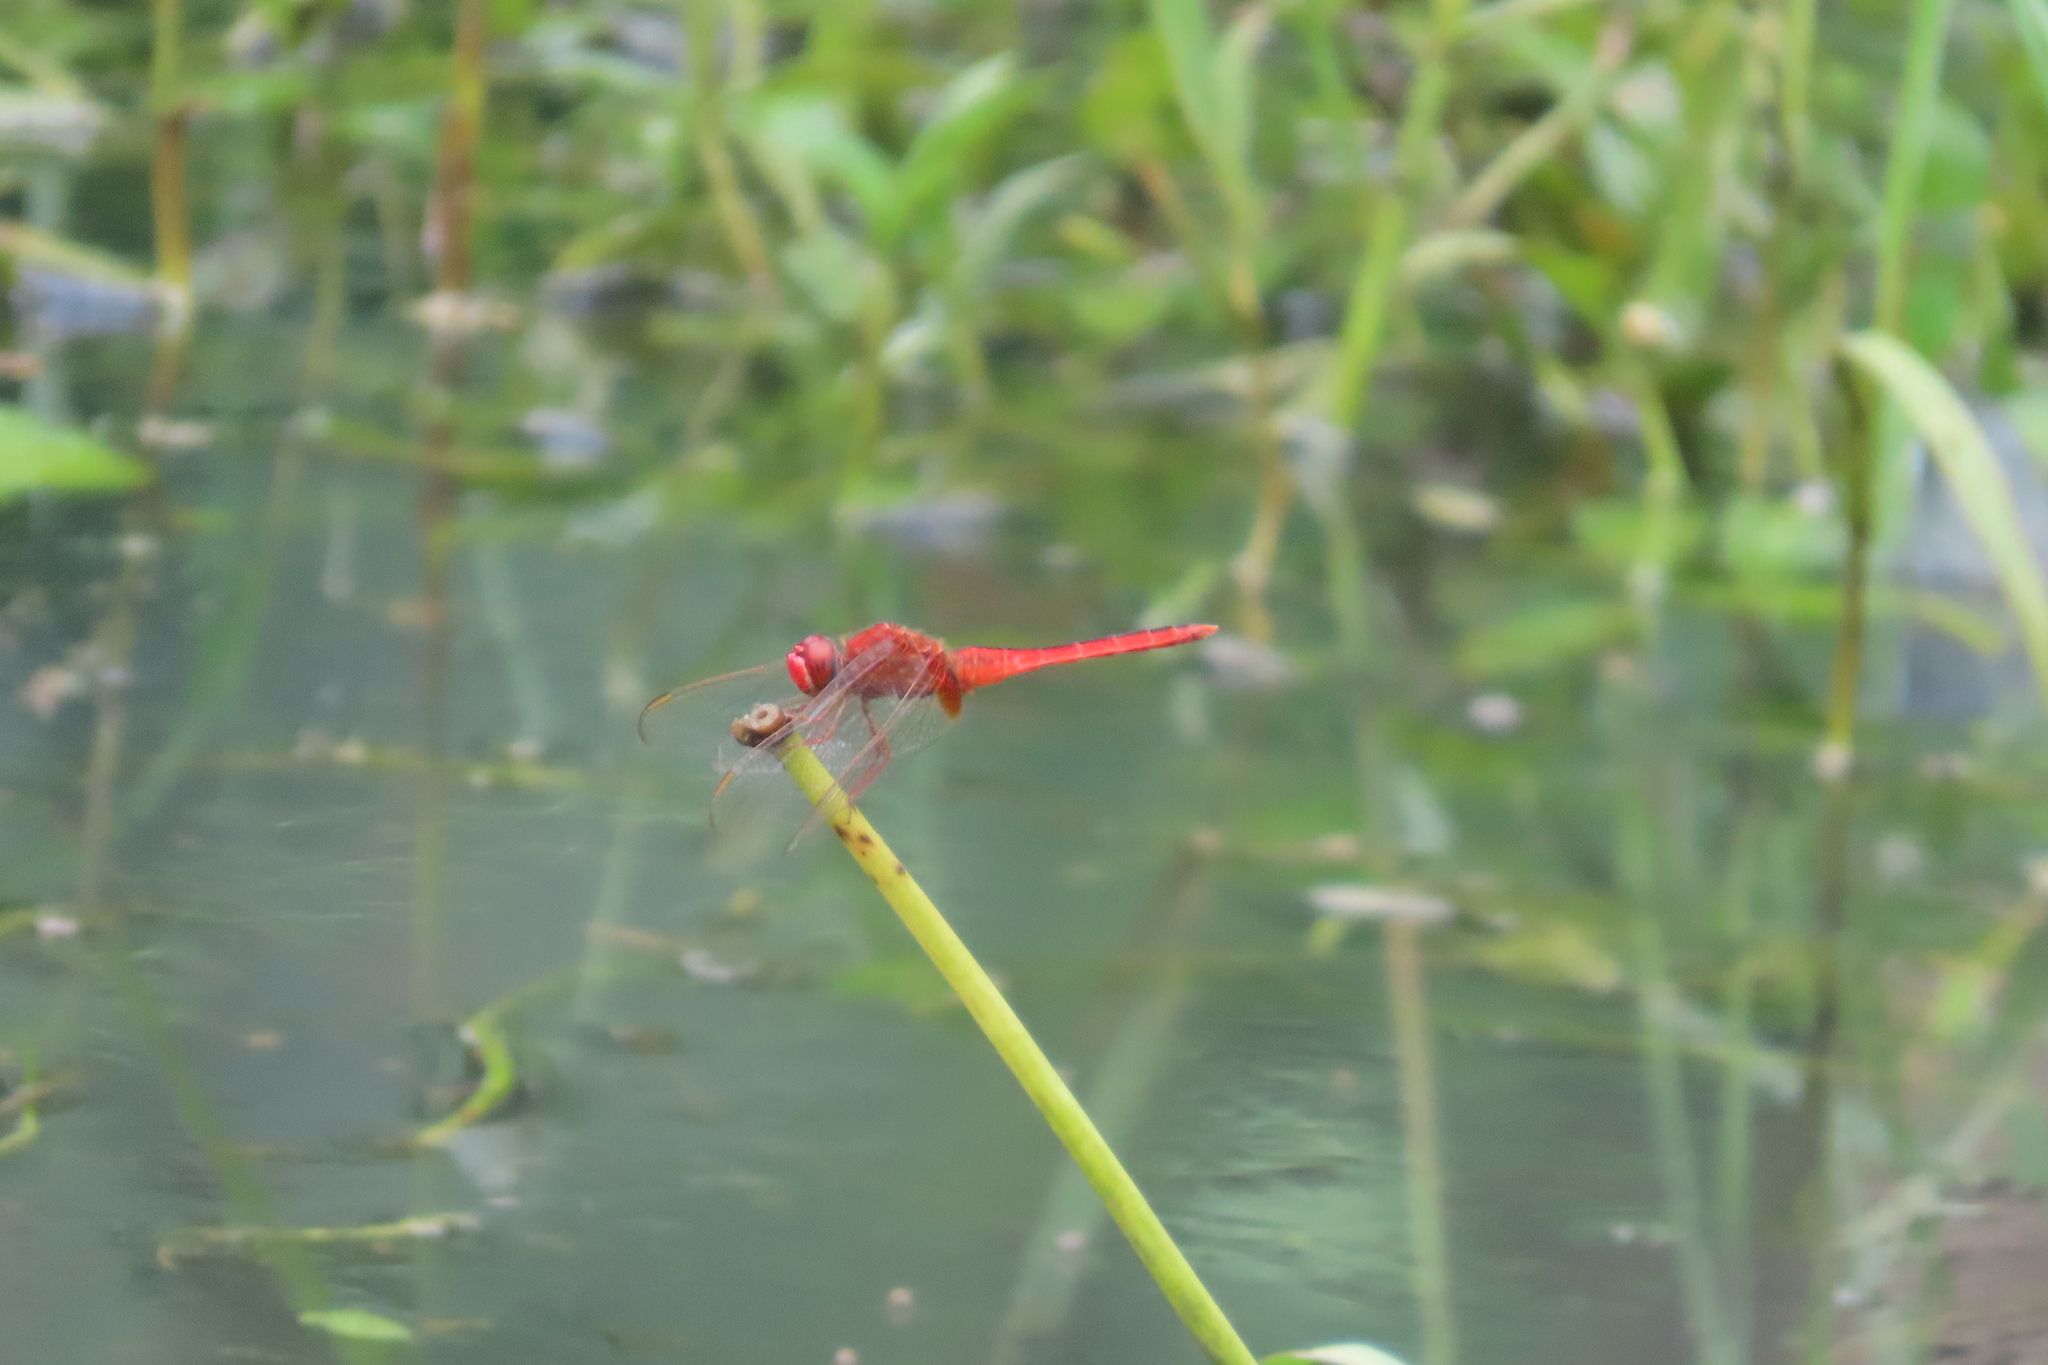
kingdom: Animalia
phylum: Arthropoda
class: Insecta
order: Odonata
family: Libellulidae
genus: Crocothemis
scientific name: Crocothemis servilia
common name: Scarlet skimmer
